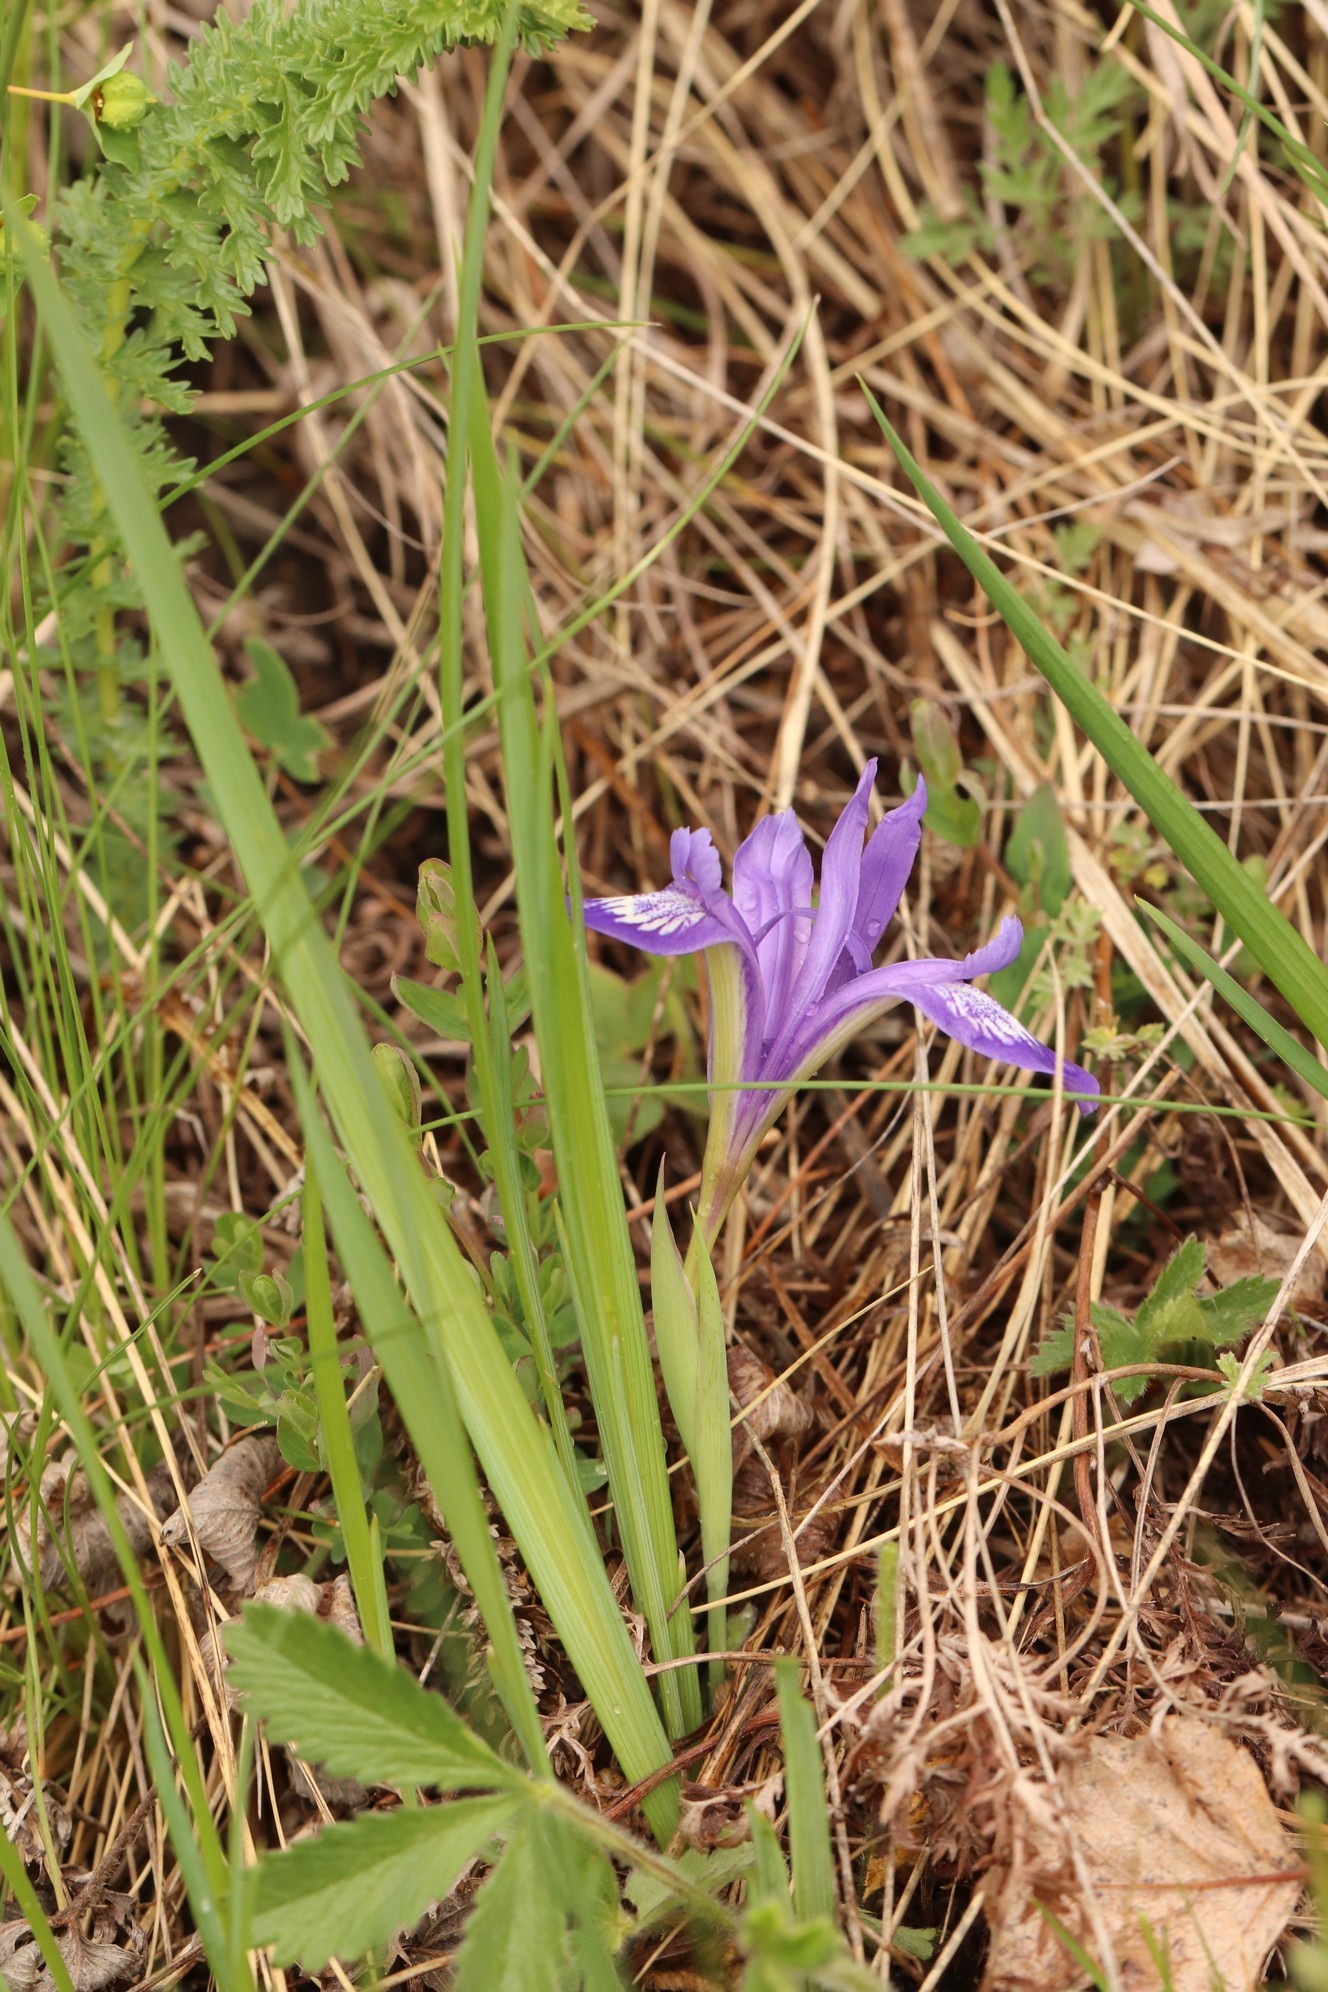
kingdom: Plantae
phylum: Tracheophyta
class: Liliopsida
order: Asparagales
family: Iridaceae
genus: Iris
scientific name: Iris ruthenica
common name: Purple-bract iris
